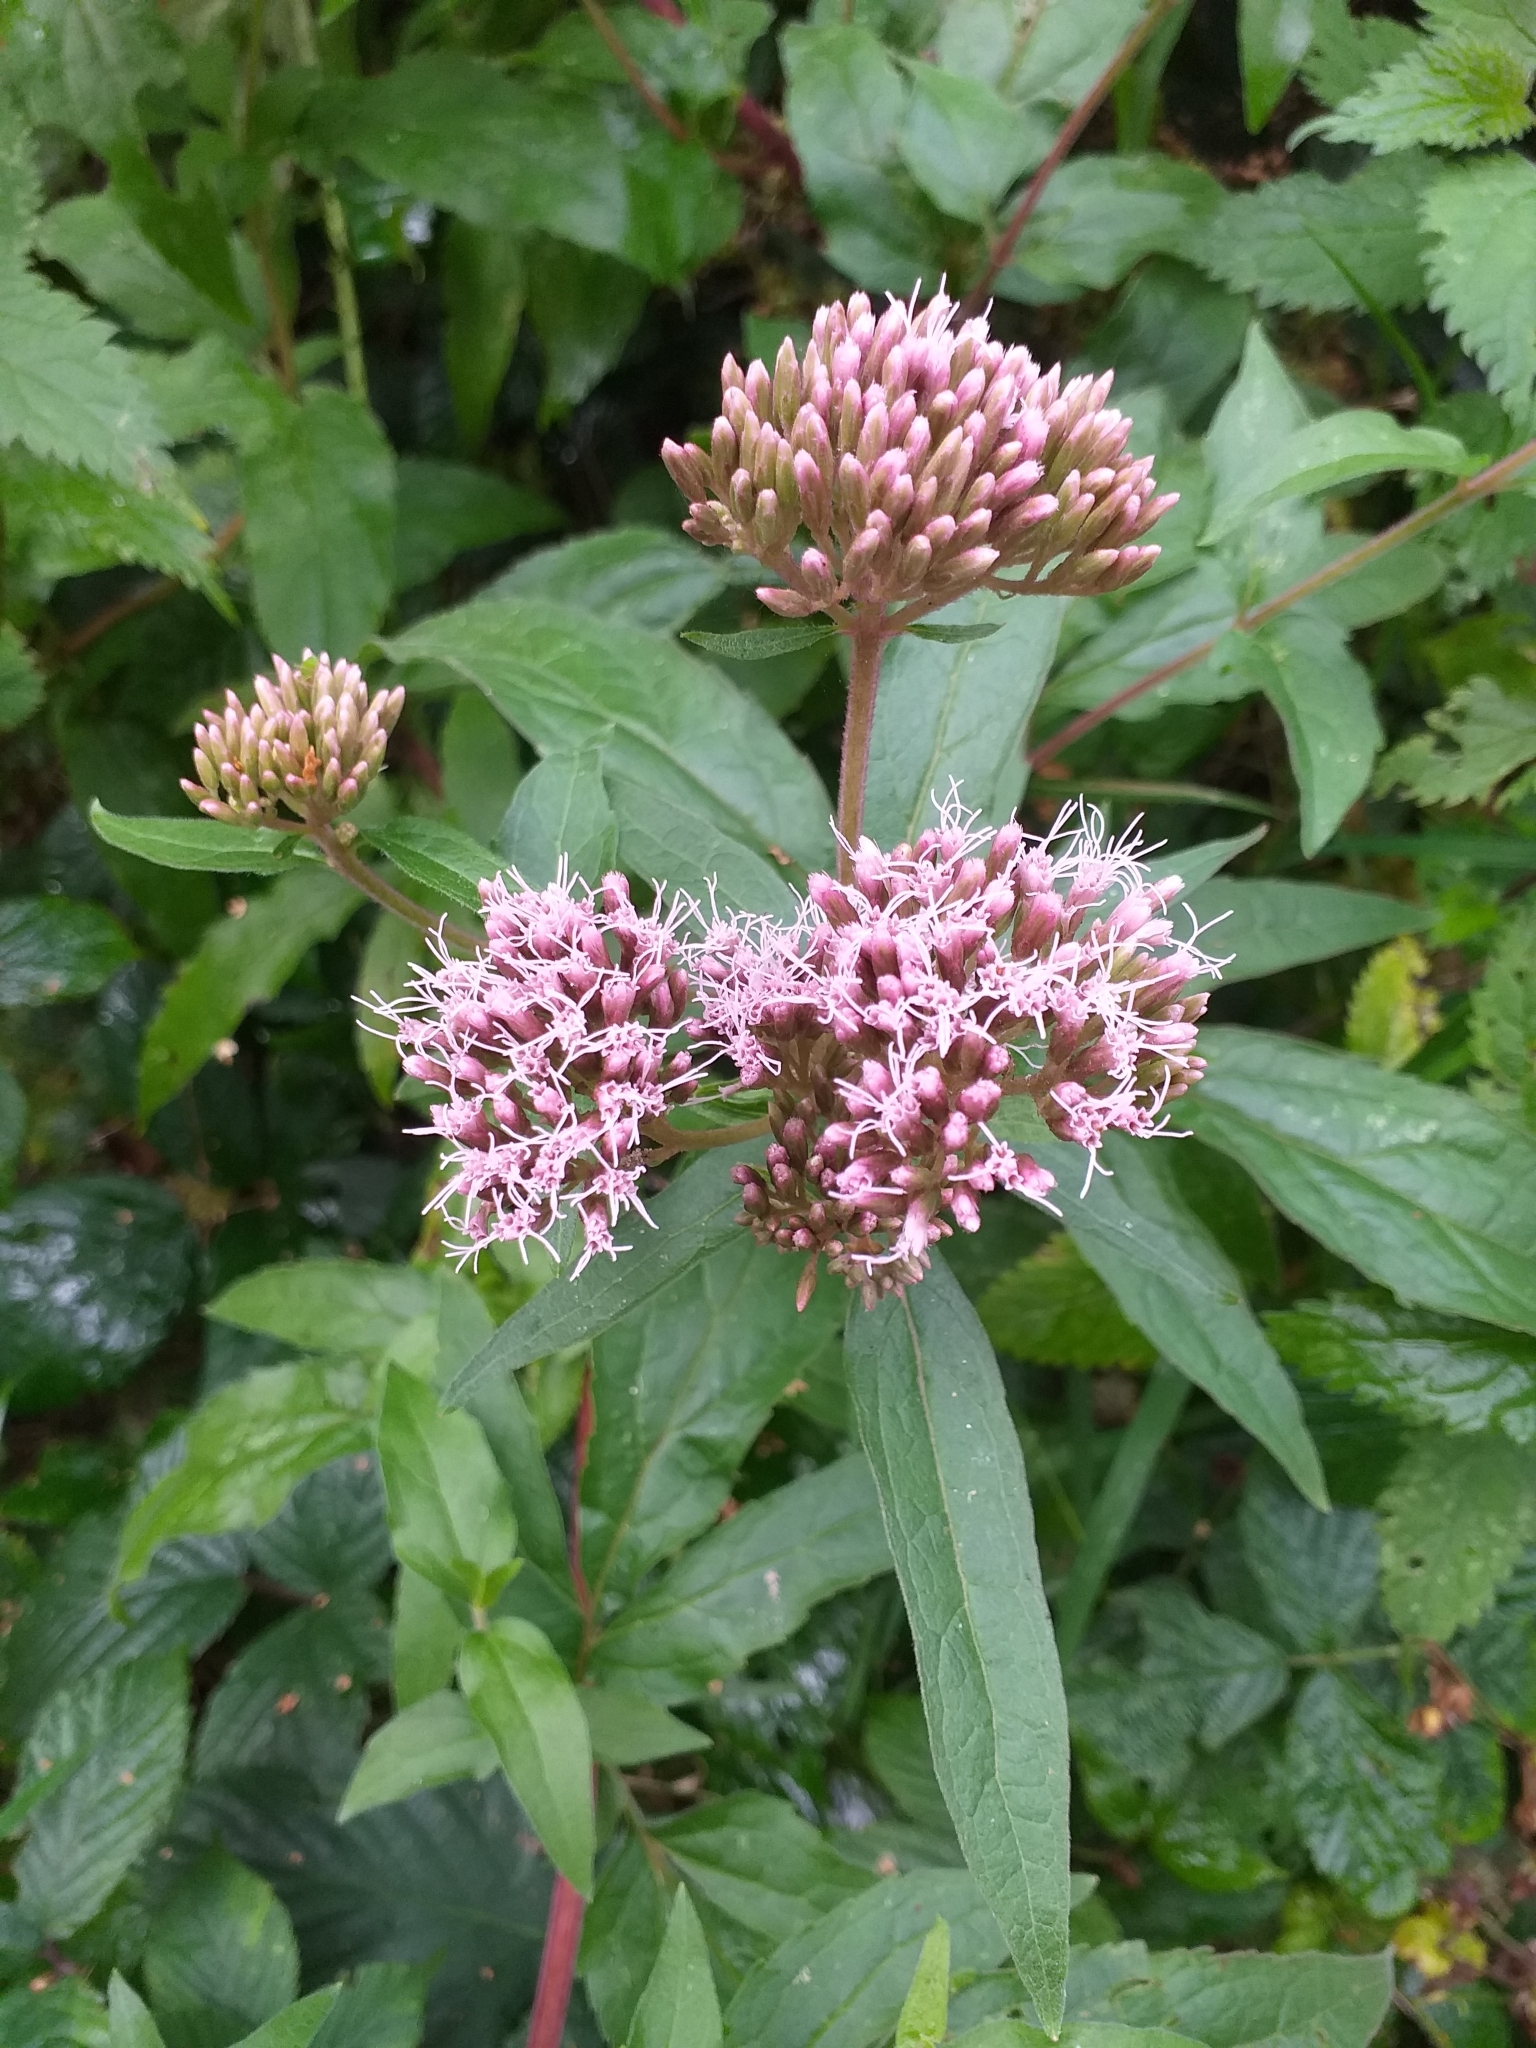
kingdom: Plantae
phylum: Tracheophyta
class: Magnoliopsida
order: Asterales
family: Asteraceae
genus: Eupatorium
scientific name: Eupatorium cannabinum
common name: Hemp-agrimony
